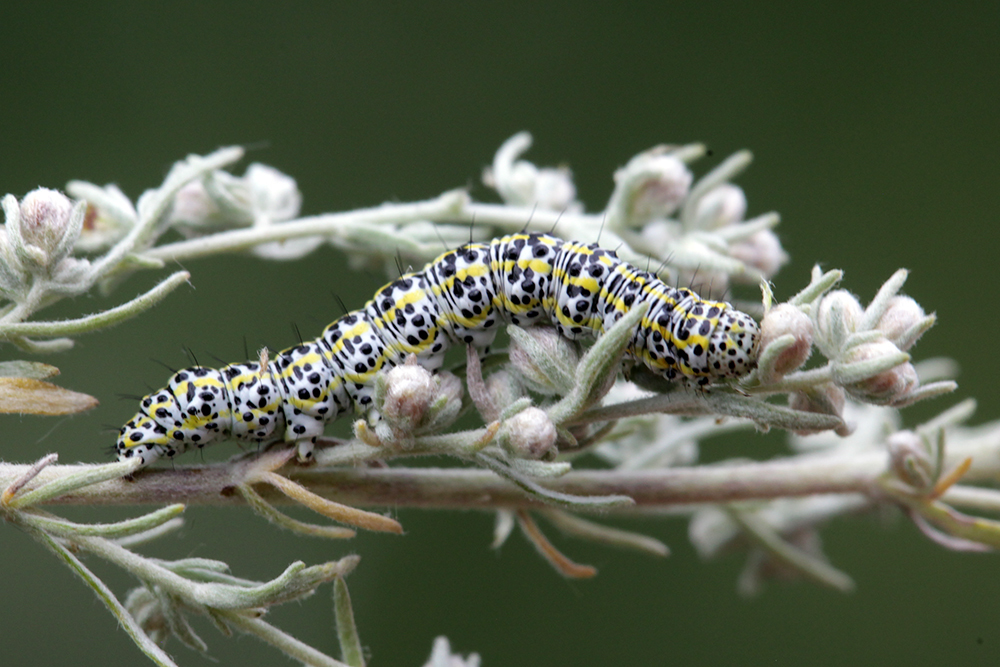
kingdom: Animalia
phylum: Arthropoda
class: Insecta
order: Lepidoptera
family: Noctuidae
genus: Cucullia
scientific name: Cucullia tanaceti
